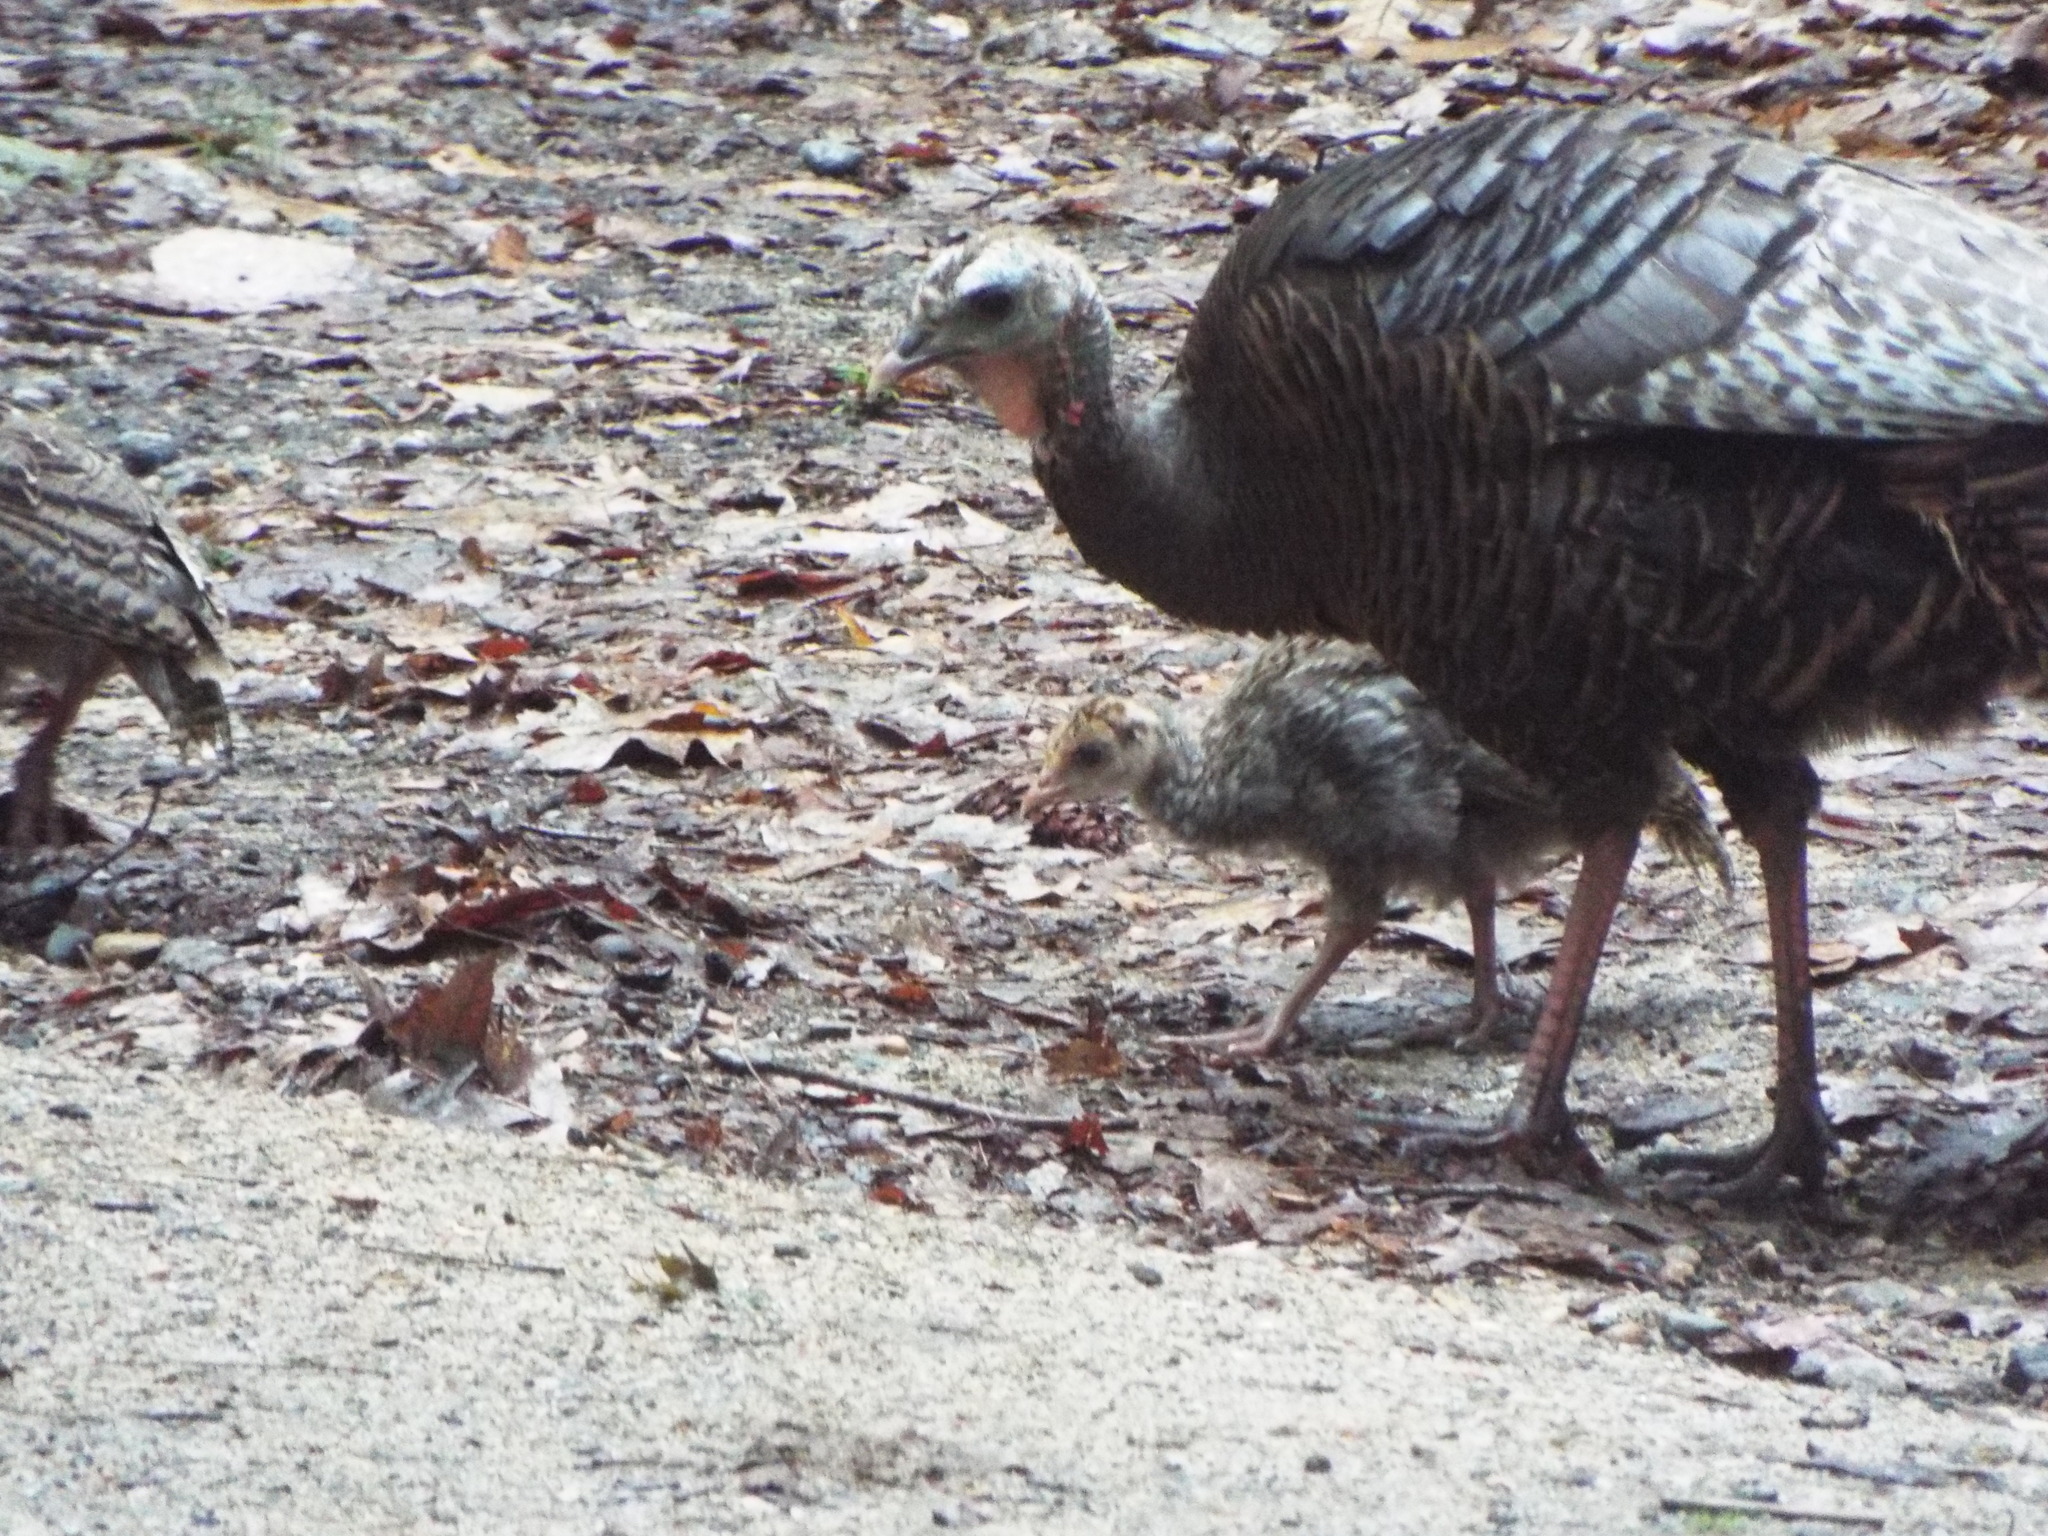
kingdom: Animalia
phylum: Chordata
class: Aves
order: Galliformes
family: Phasianidae
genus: Meleagris
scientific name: Meleagris gallopavo
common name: Wild turkey
